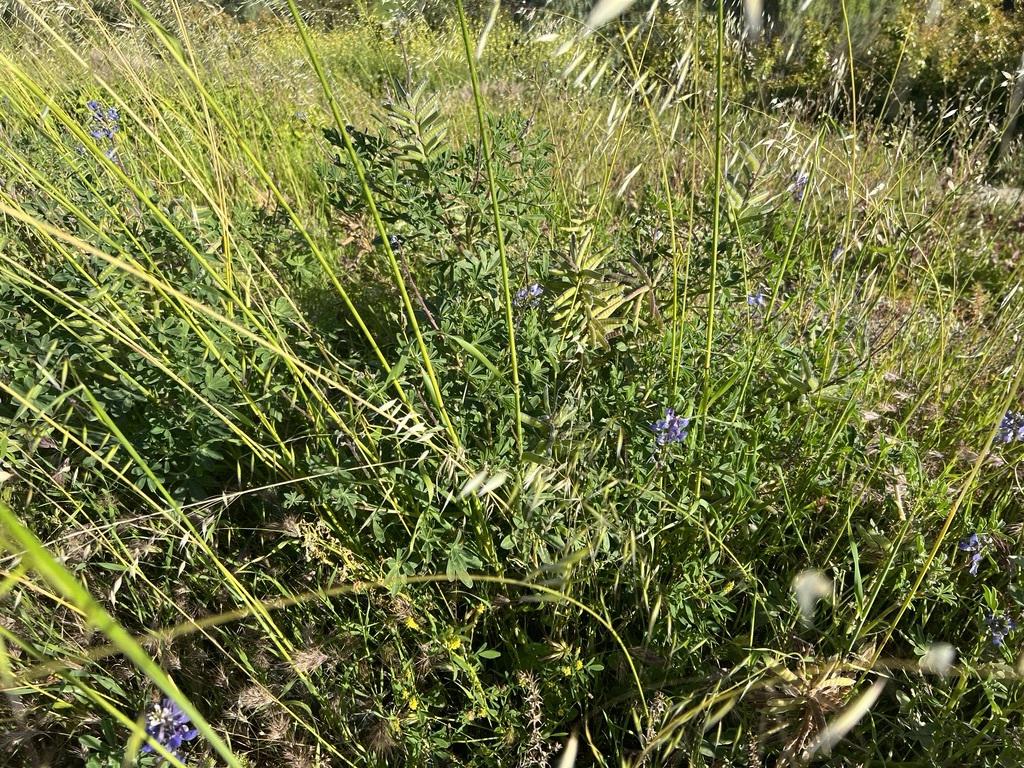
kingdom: Plantae
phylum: Tracheophyta
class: Magnoliopsida
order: Fabales
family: Fabaceae
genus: Lupinus
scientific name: Lupinus succulentus
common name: Arroyo lupine
